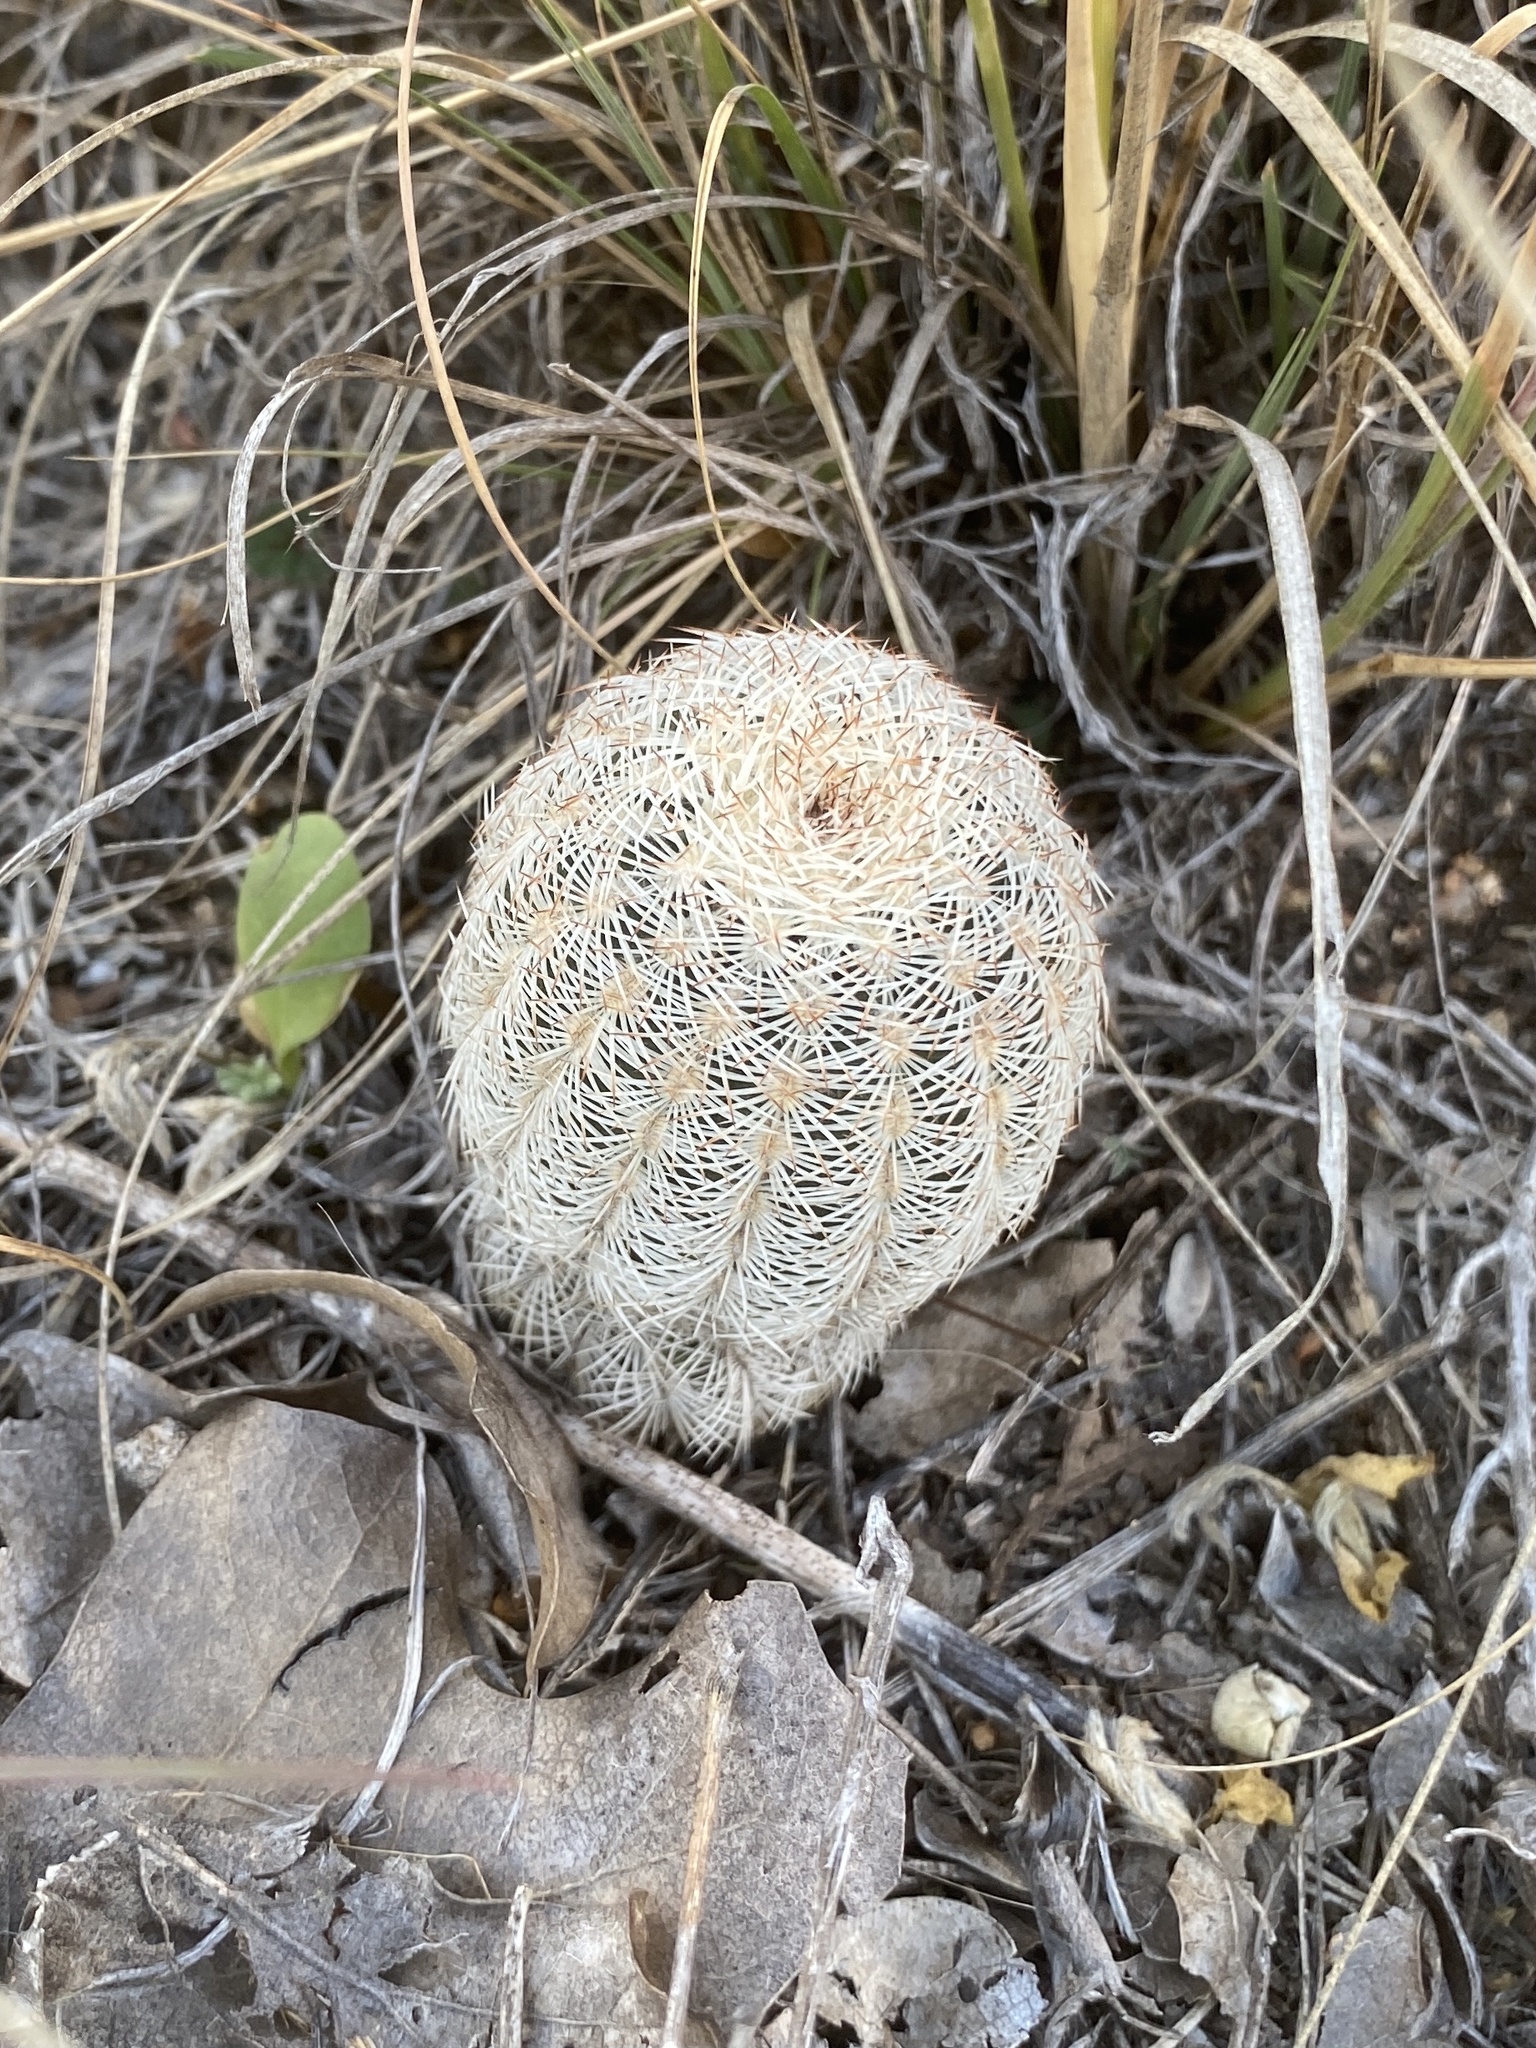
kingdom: Plantae
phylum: Tracheophyta
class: Magnoliopsida
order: Caryophyllales
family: Cactaceae
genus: Echinocereus
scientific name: Echinocereus reichenbachii
